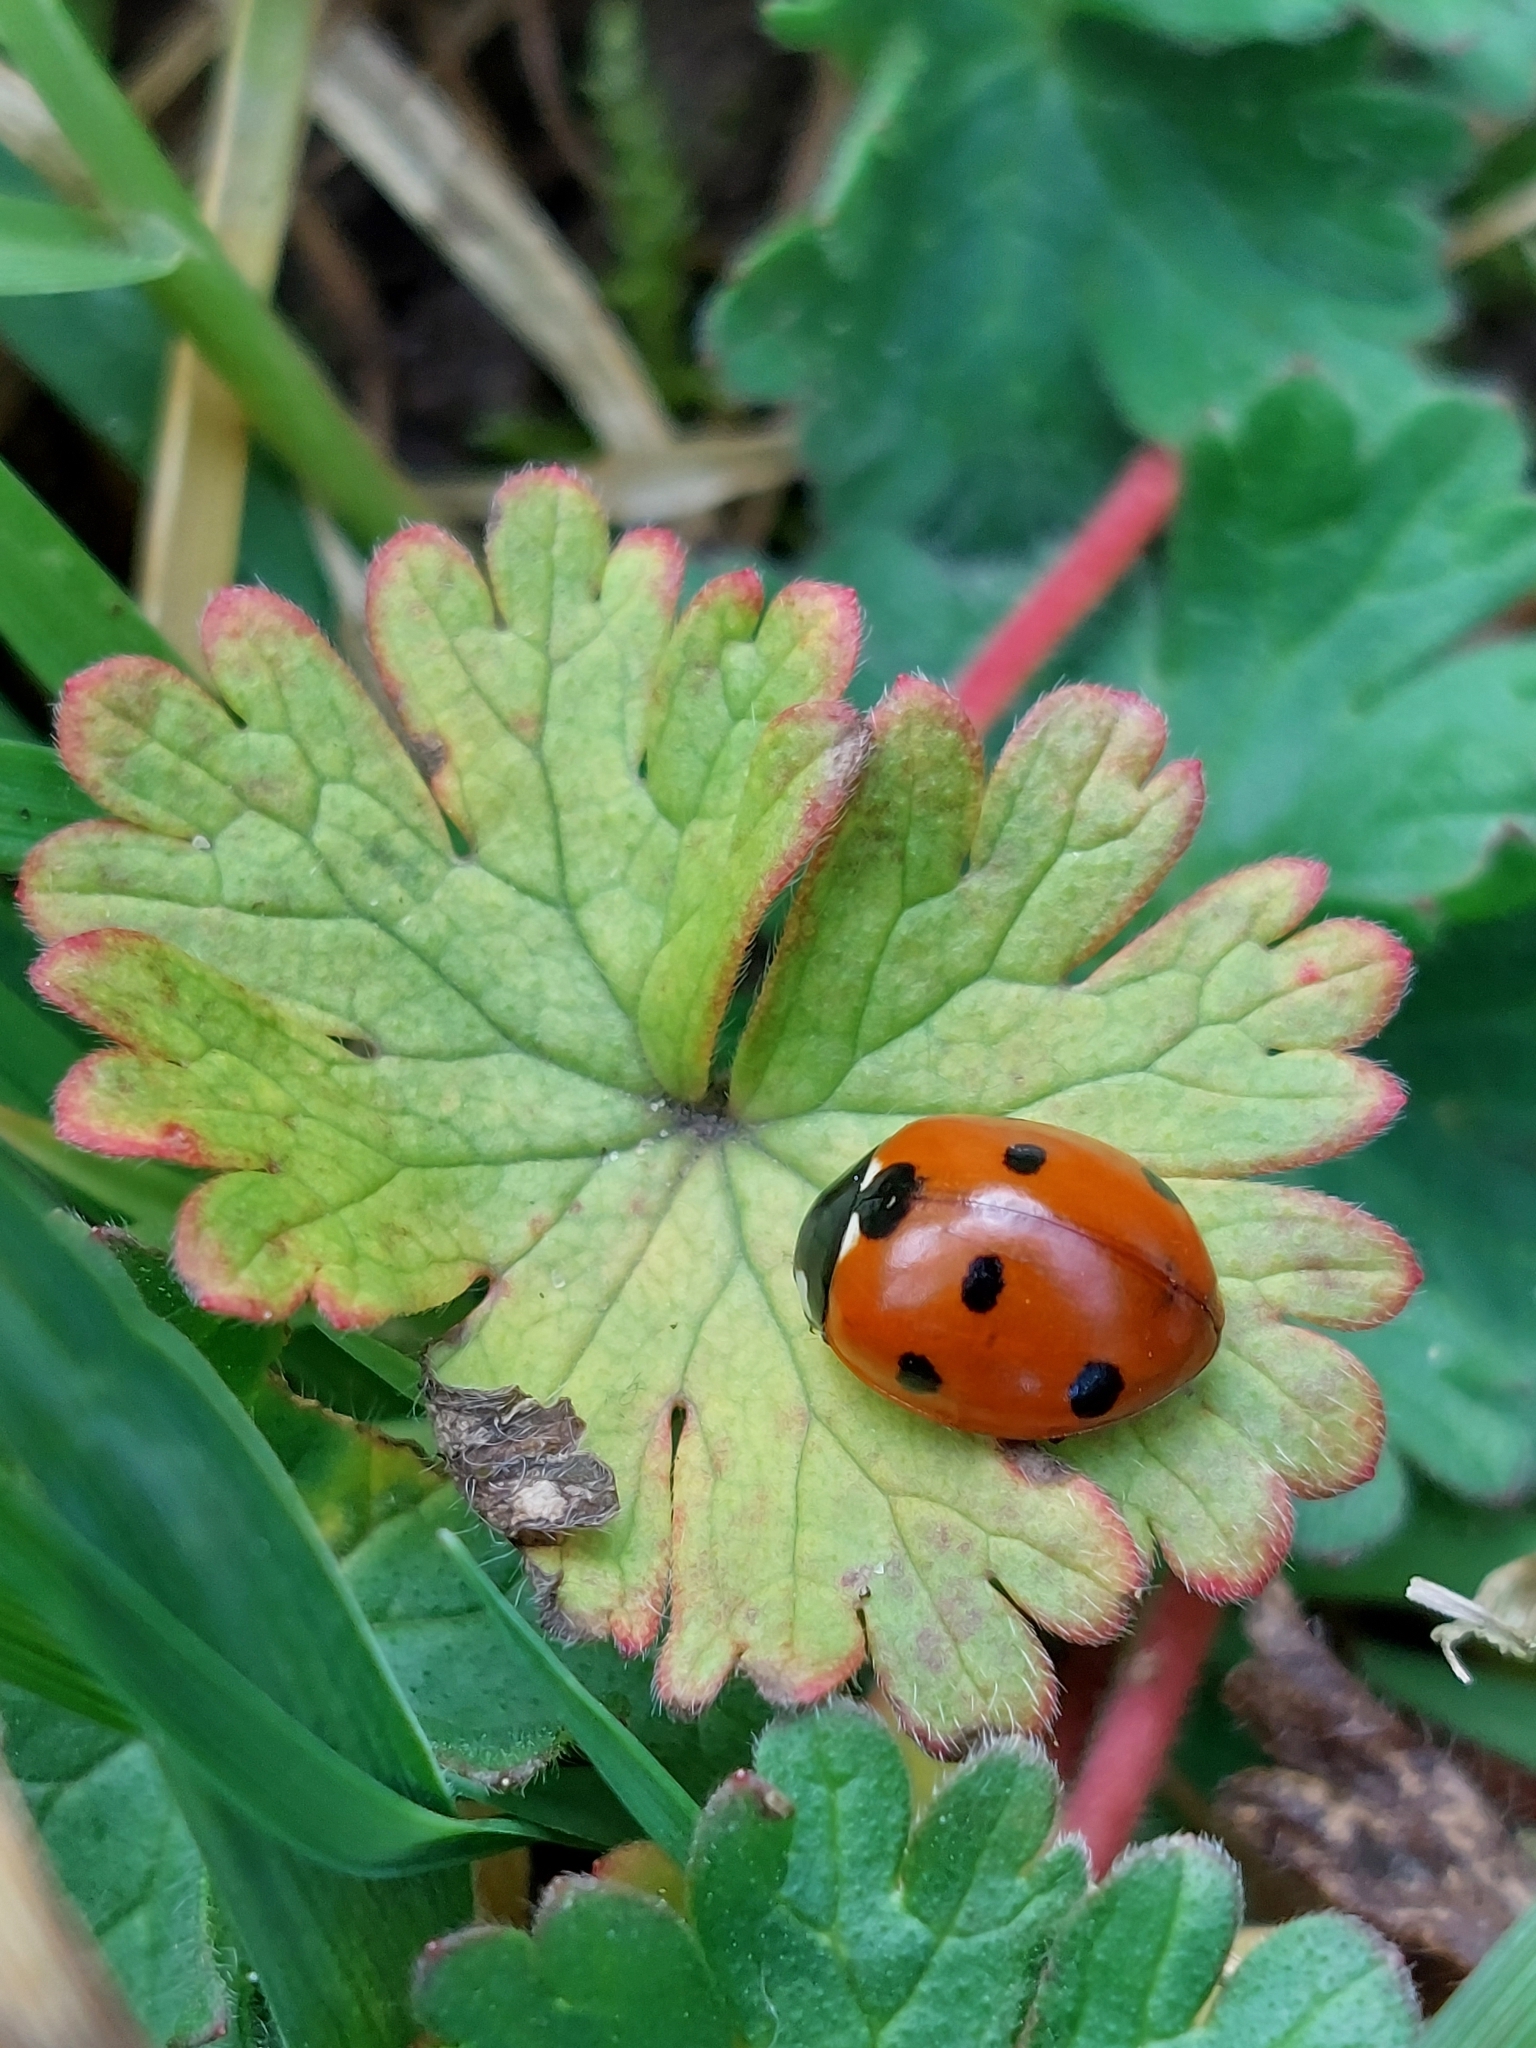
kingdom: Animalia
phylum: Arthropoda
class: Insecta
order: Coleoptera
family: Coccinellidae
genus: Coccinella
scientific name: Coccinella septempunctata
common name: Sevenspotted lady beetle
